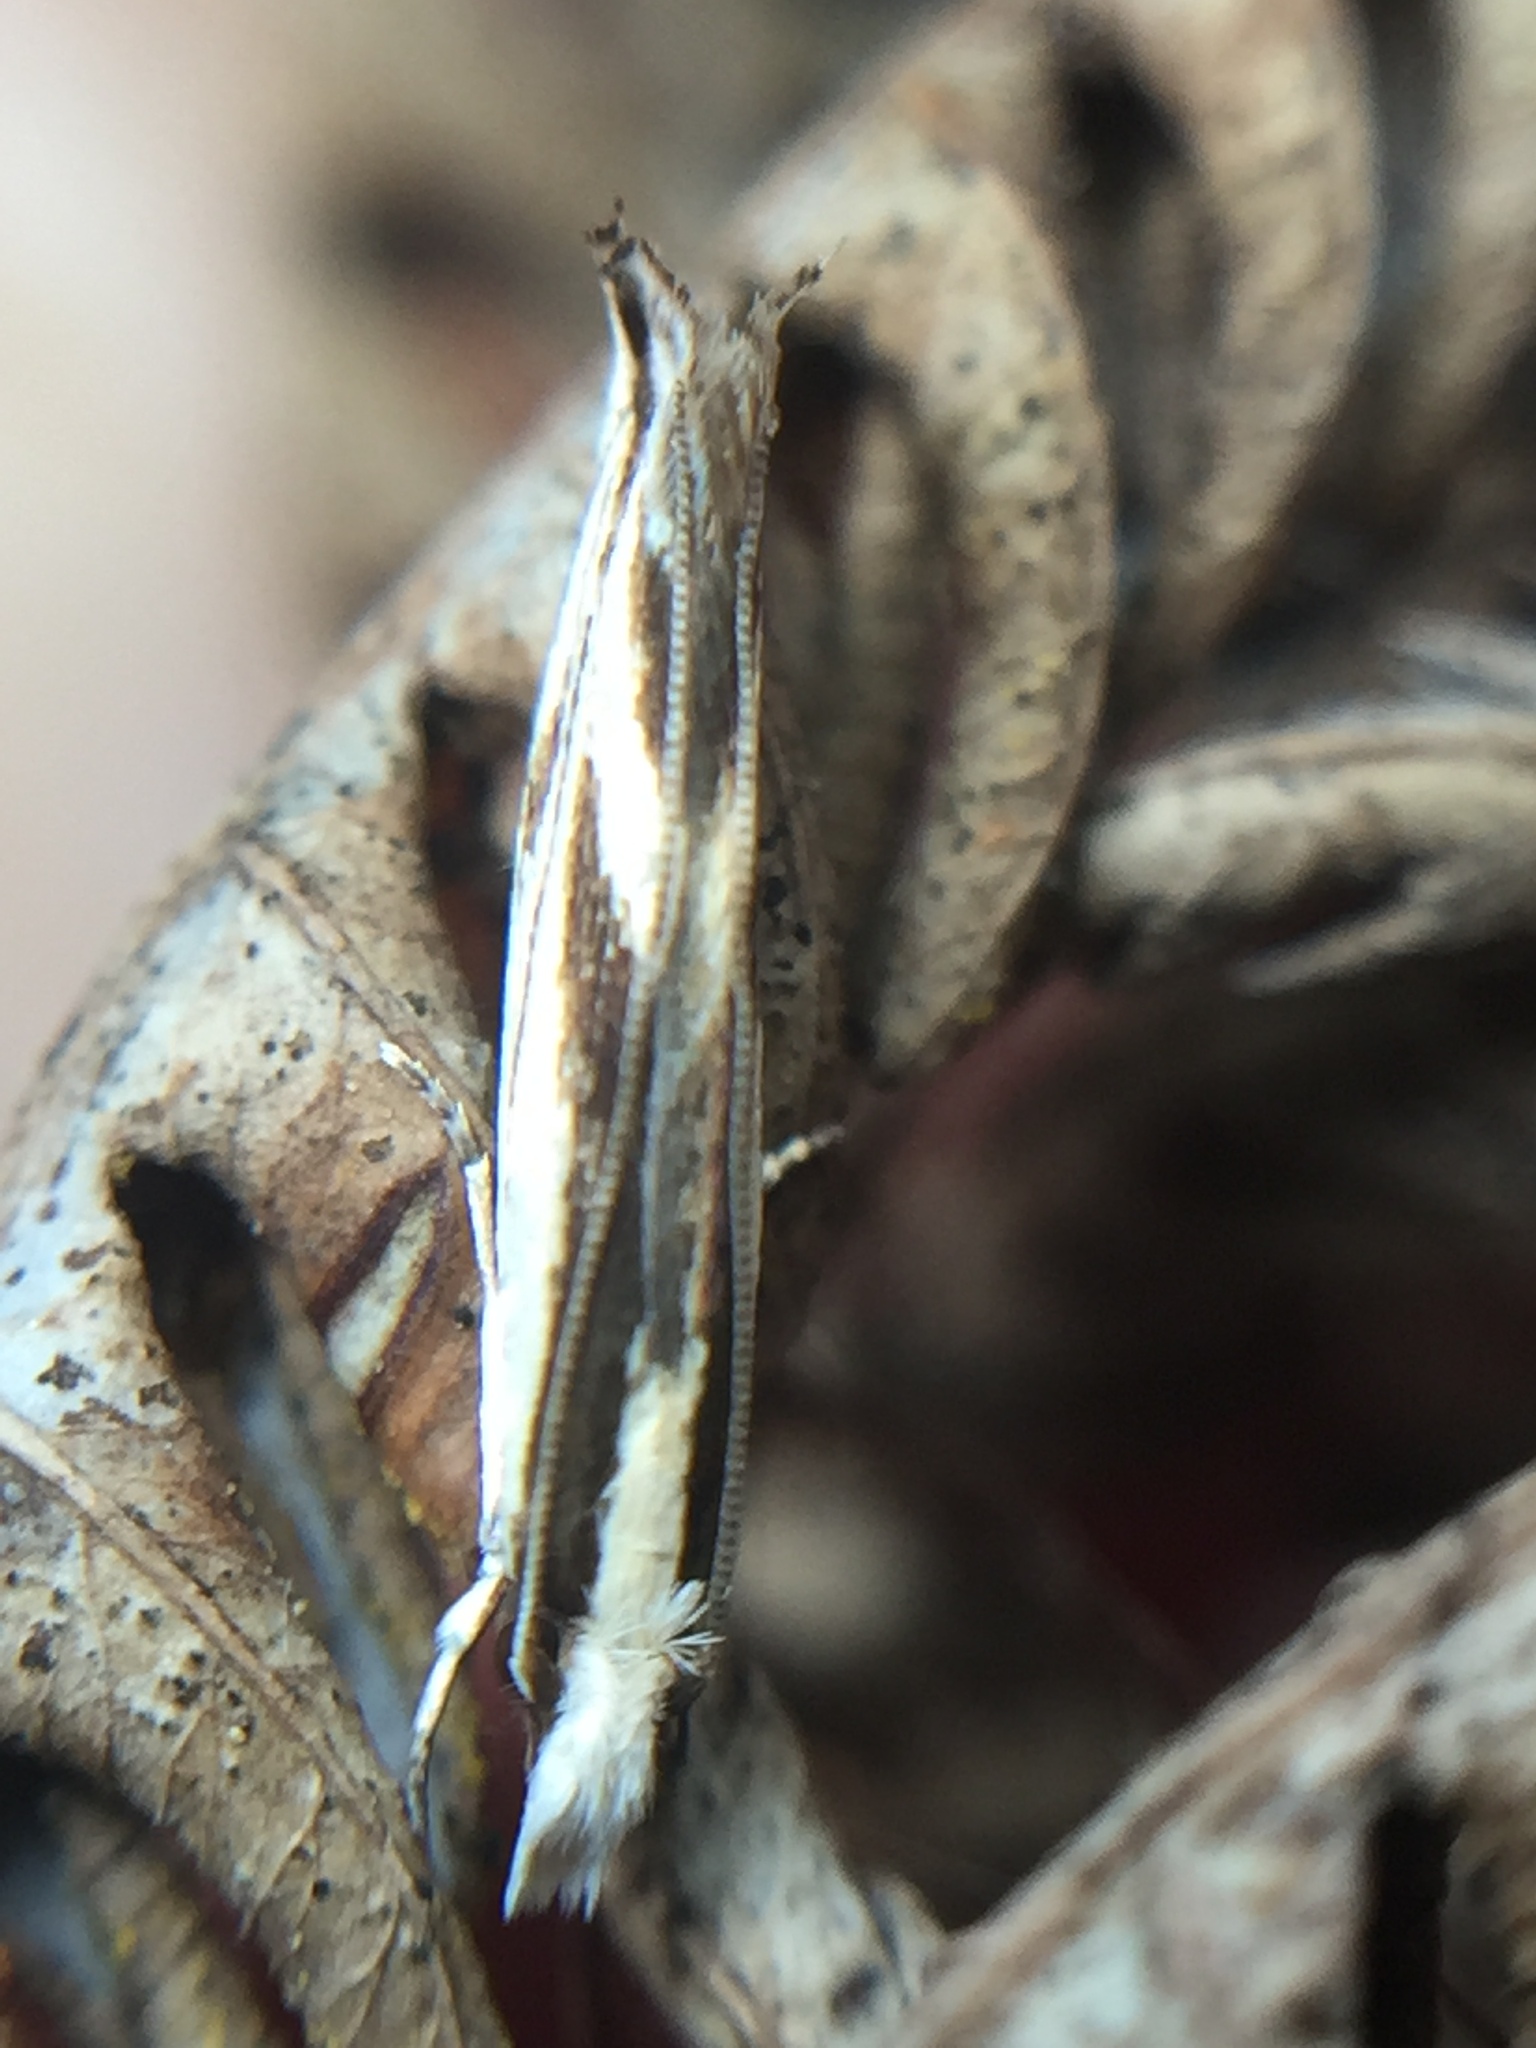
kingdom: Animalia
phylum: Arthropoda
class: Insecta
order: Lepidoptera
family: Tineidae
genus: Erechthias
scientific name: Erechthias chasmatias
